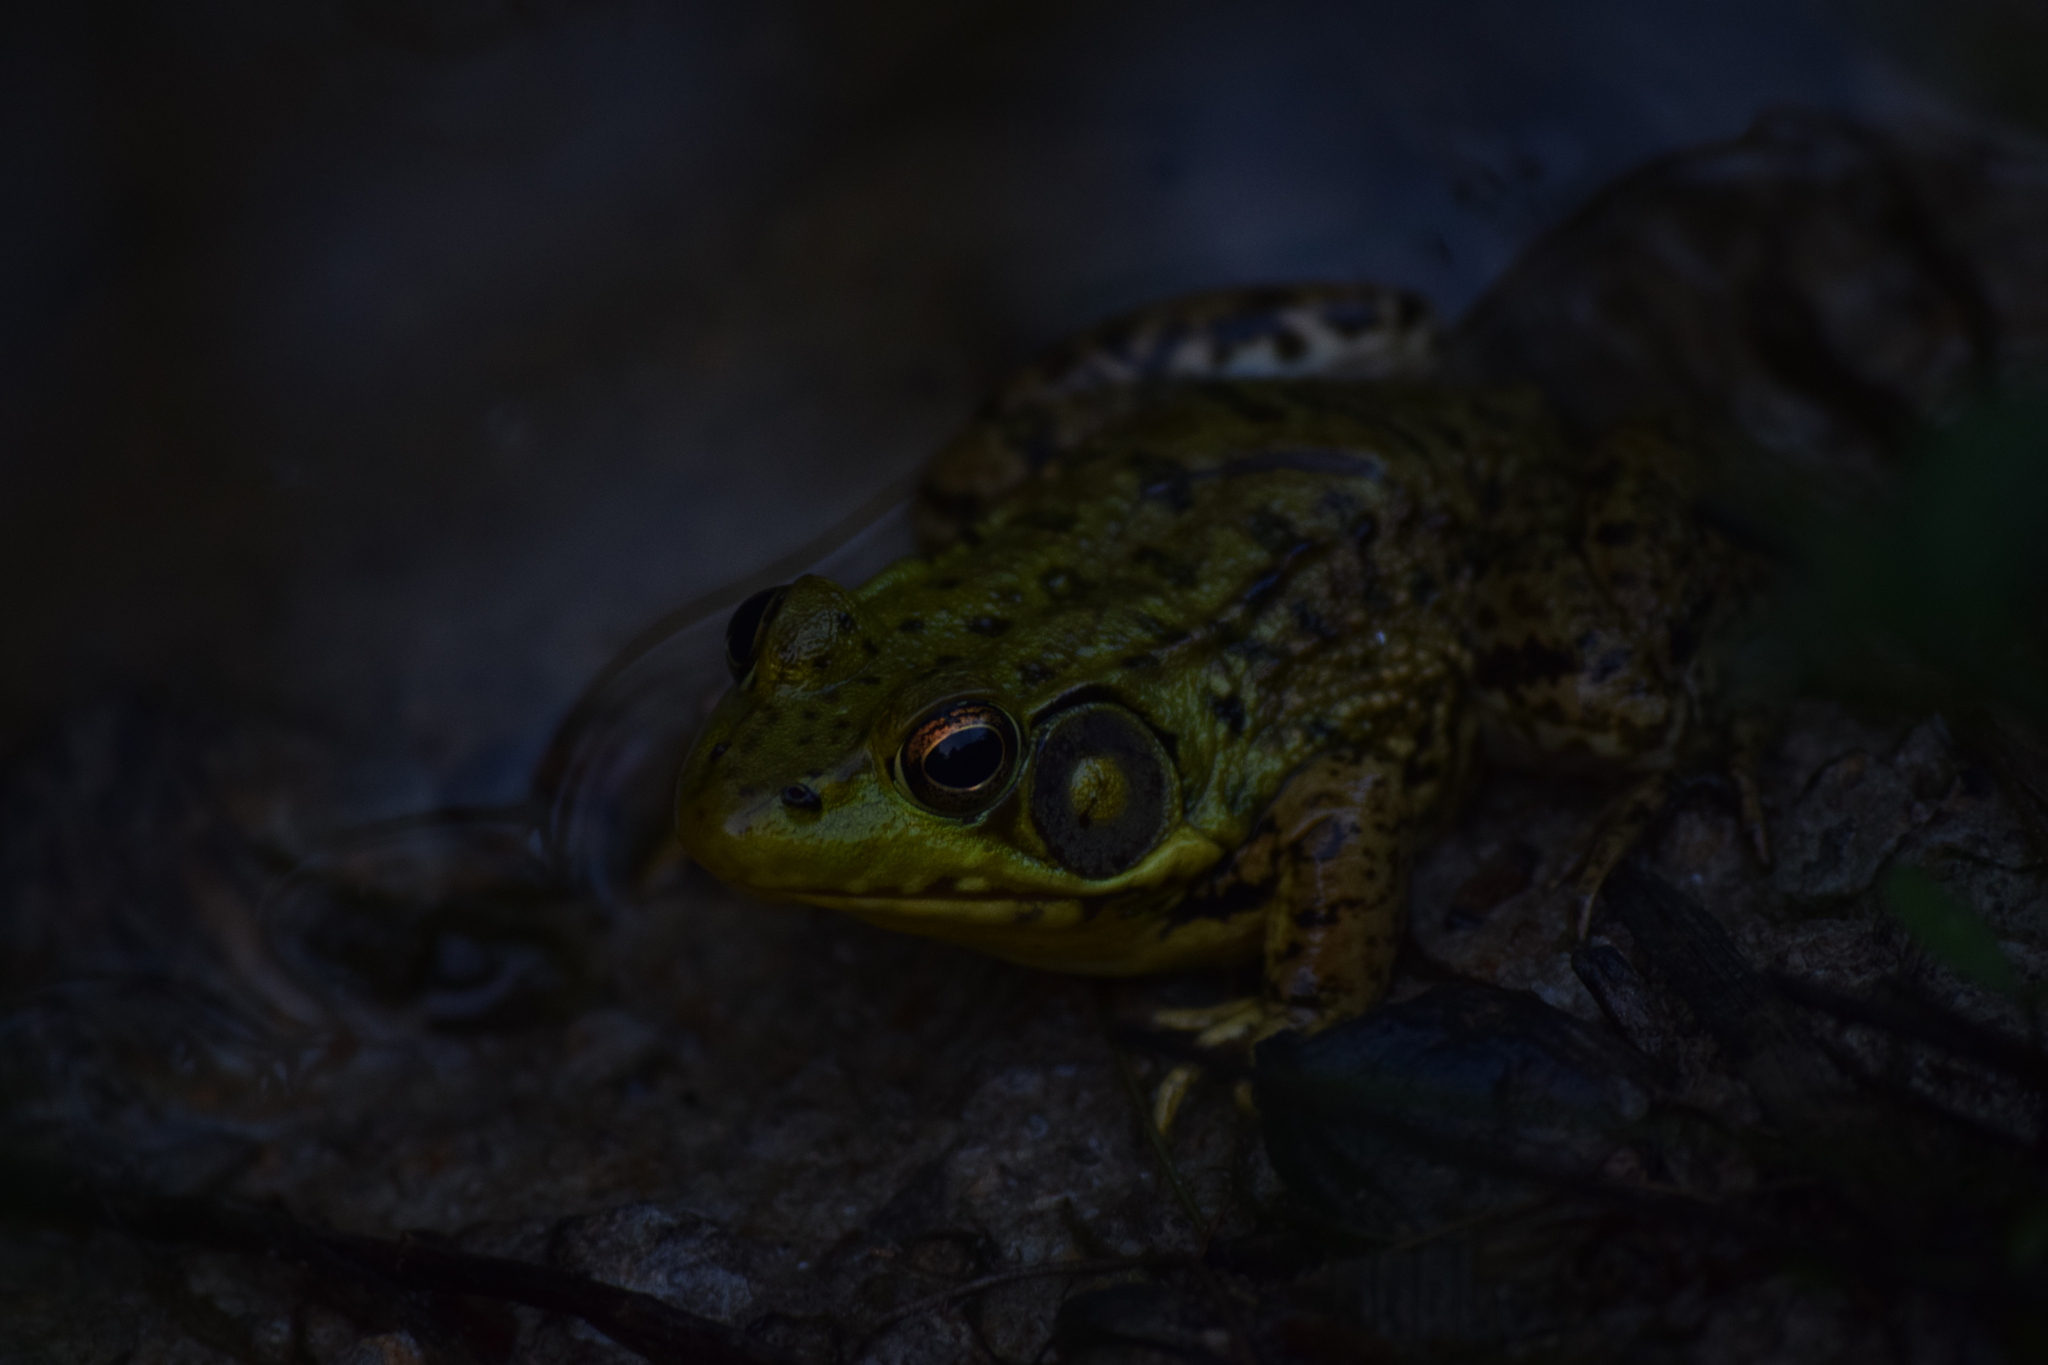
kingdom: Animalia
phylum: Chordata
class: Amphibia
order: Anura
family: Ranidae
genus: Lithobates
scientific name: Lithobates clamitans
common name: Green frog
